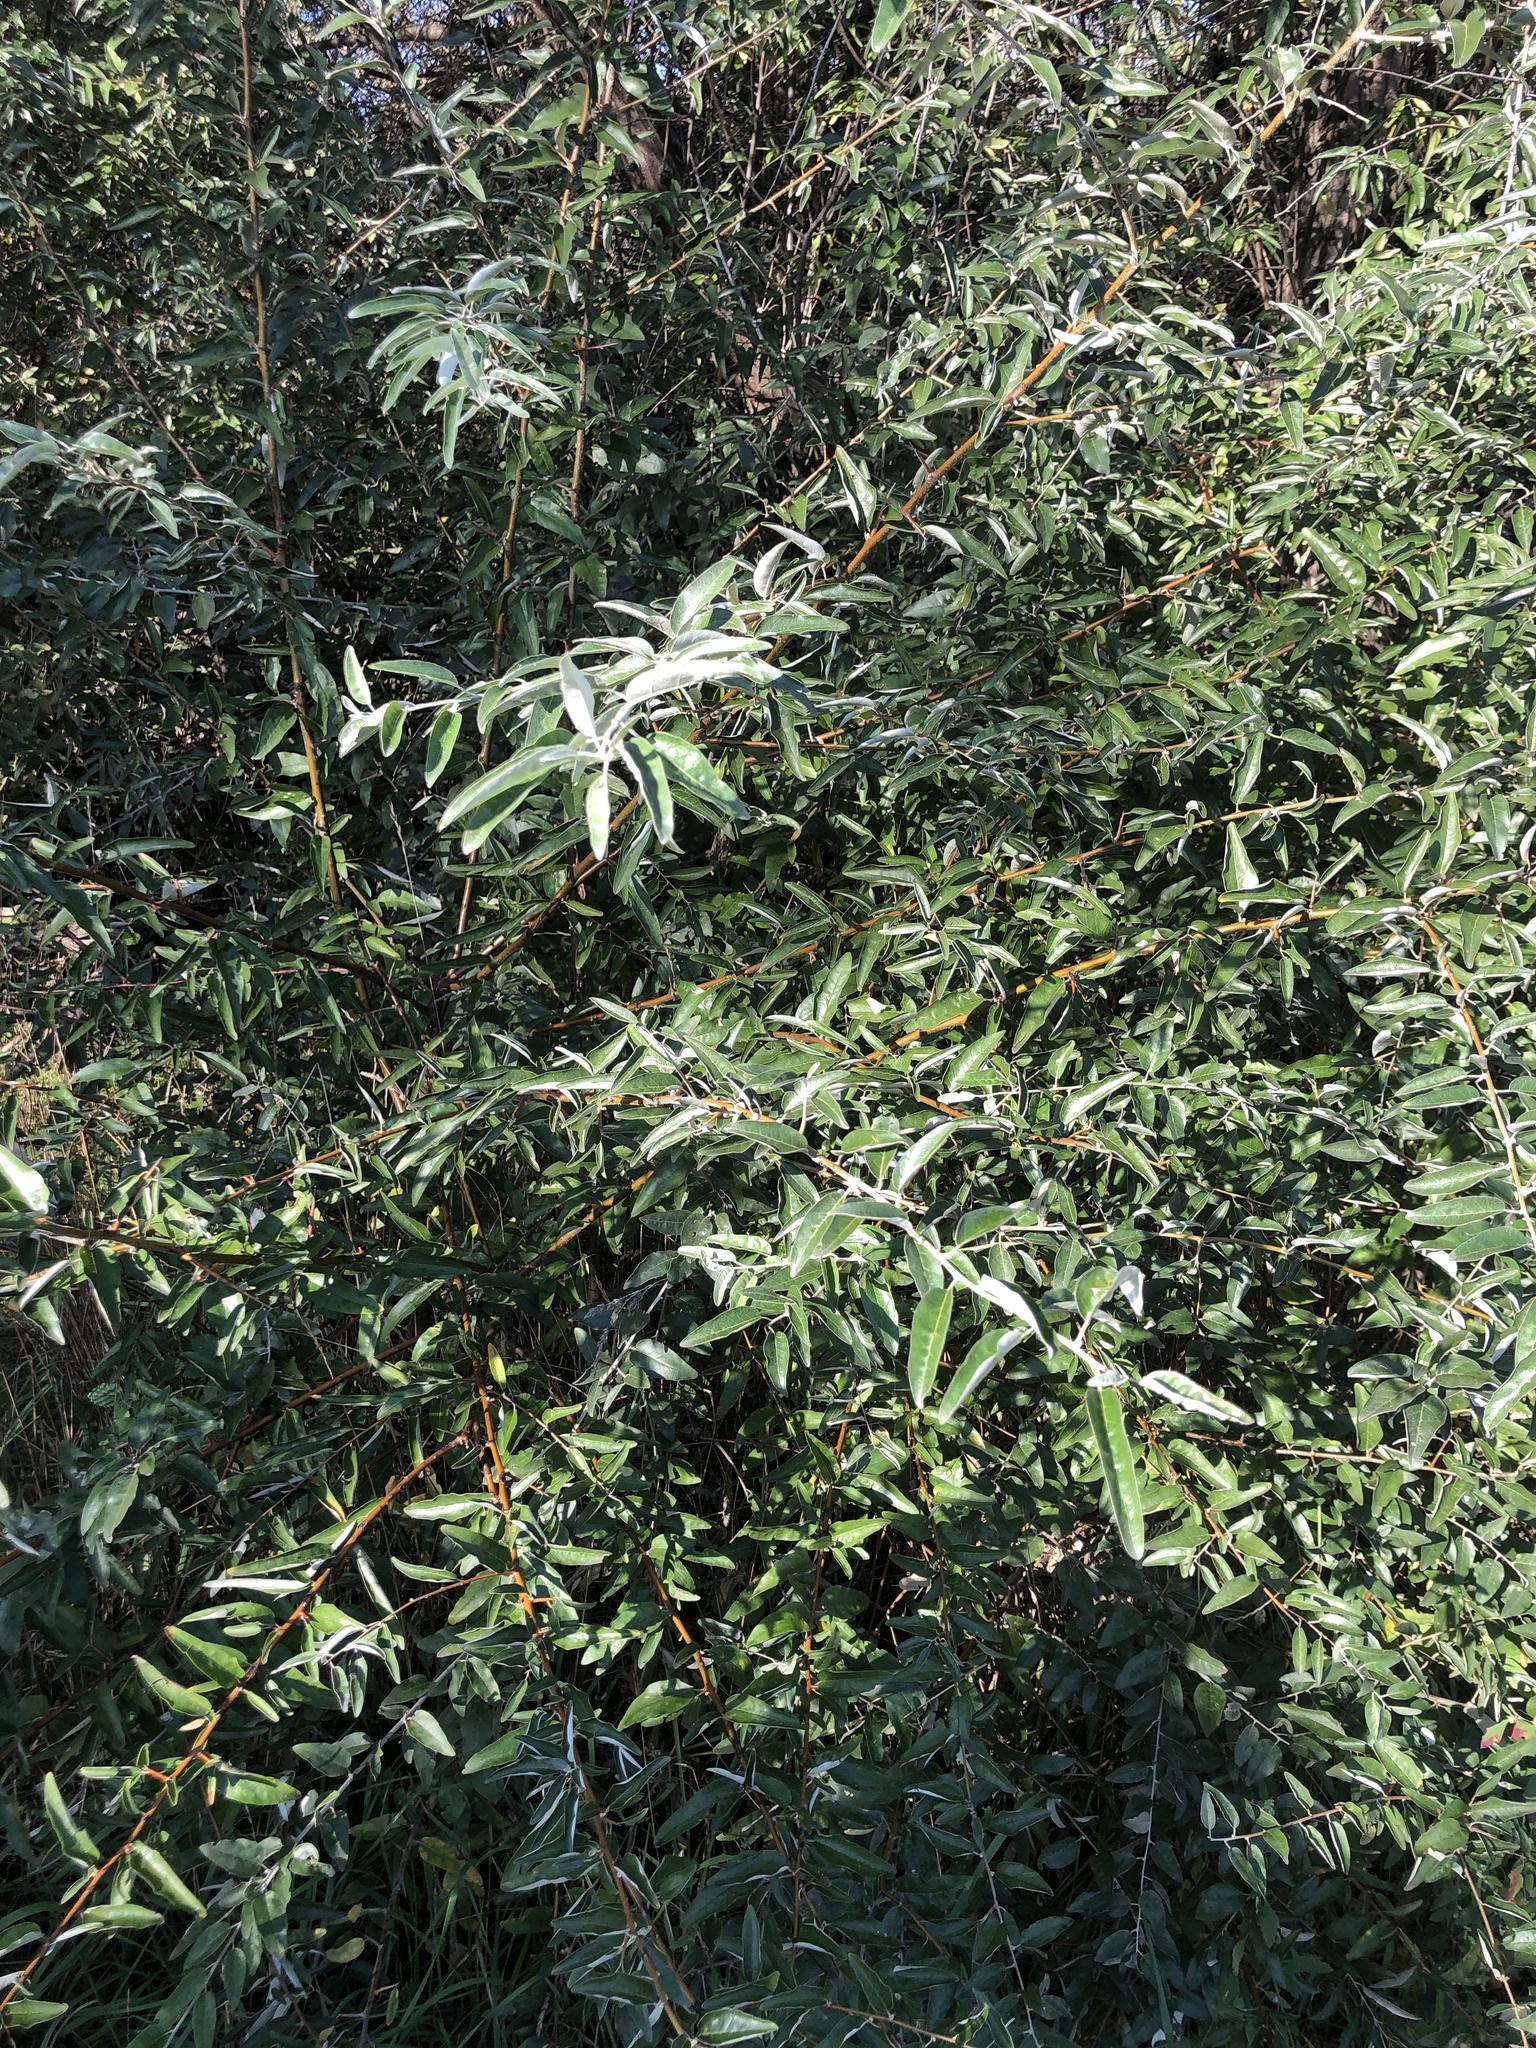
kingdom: Plantae
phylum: Tracheophyta
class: Magnoliopsida
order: Rosales
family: Elaeagnaceae
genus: Elaeagnus
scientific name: Elaeagnus angustifolia
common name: Russian olive
